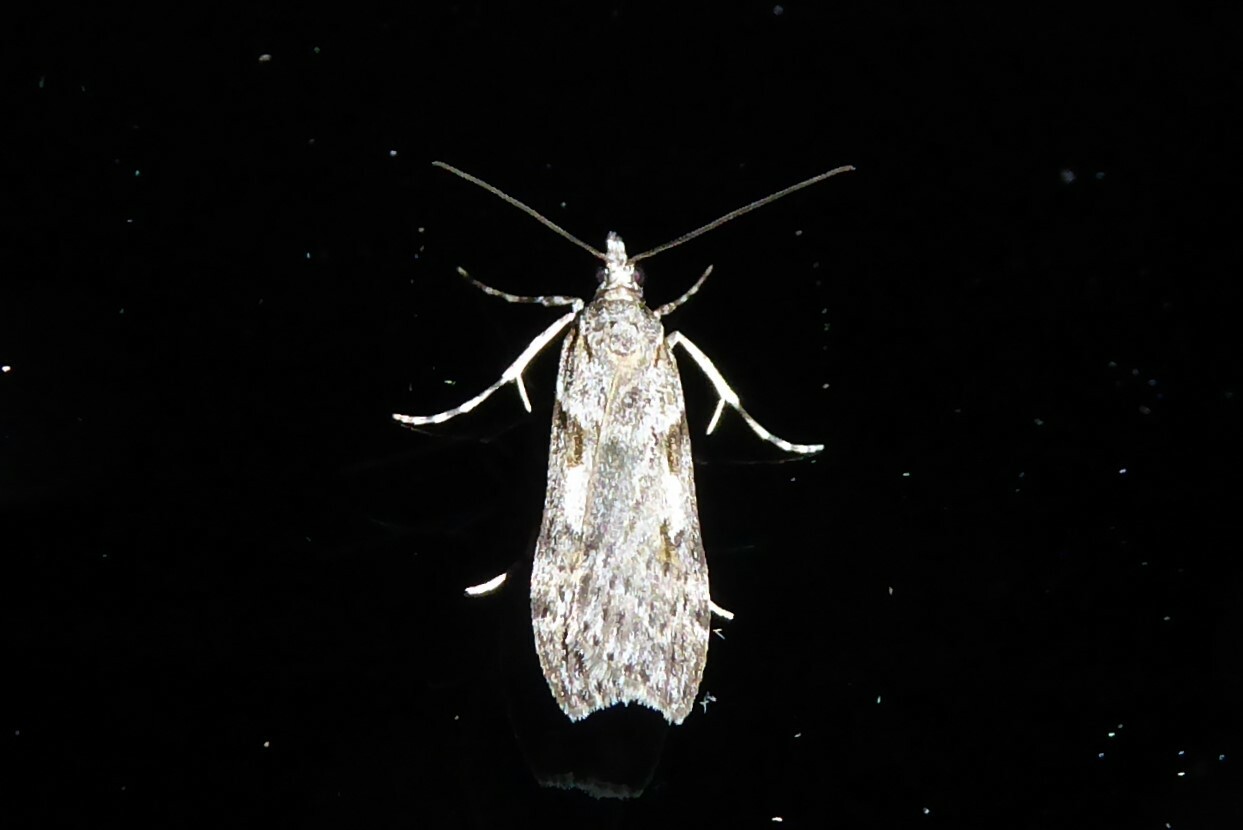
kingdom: Animalia
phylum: Arthropoda
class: Insecta
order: Lepidoptera
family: Crambidae
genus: Scoparia
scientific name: Scoparia halopis
